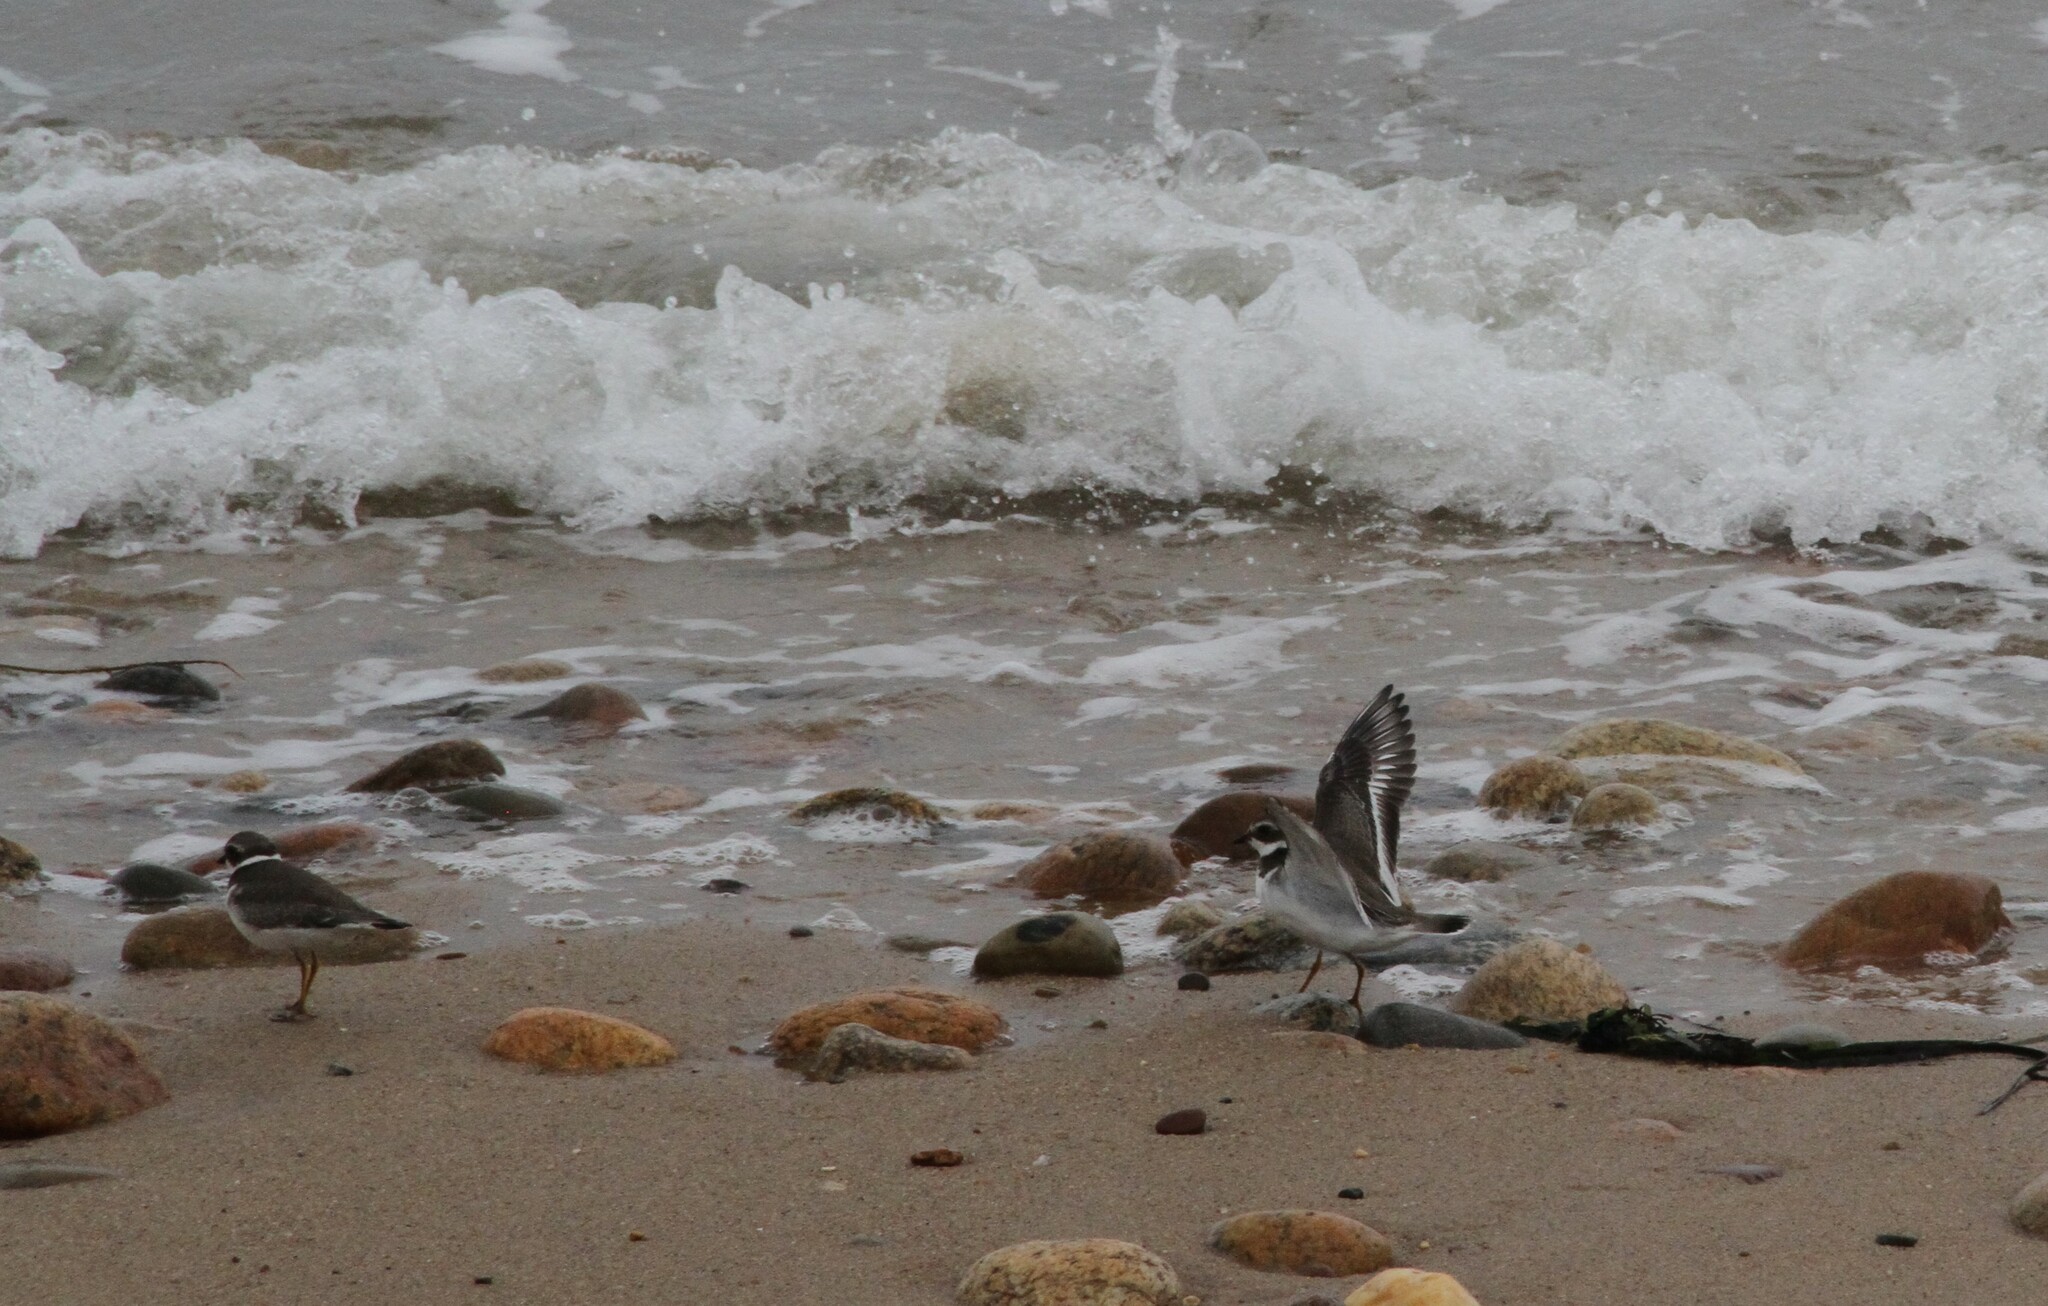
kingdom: Animalia
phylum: Chordata
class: Aves
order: Charadriiformes
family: Charadriidae
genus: Charadrius
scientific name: Charadrius semipalmatus
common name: Semipalmated plover
